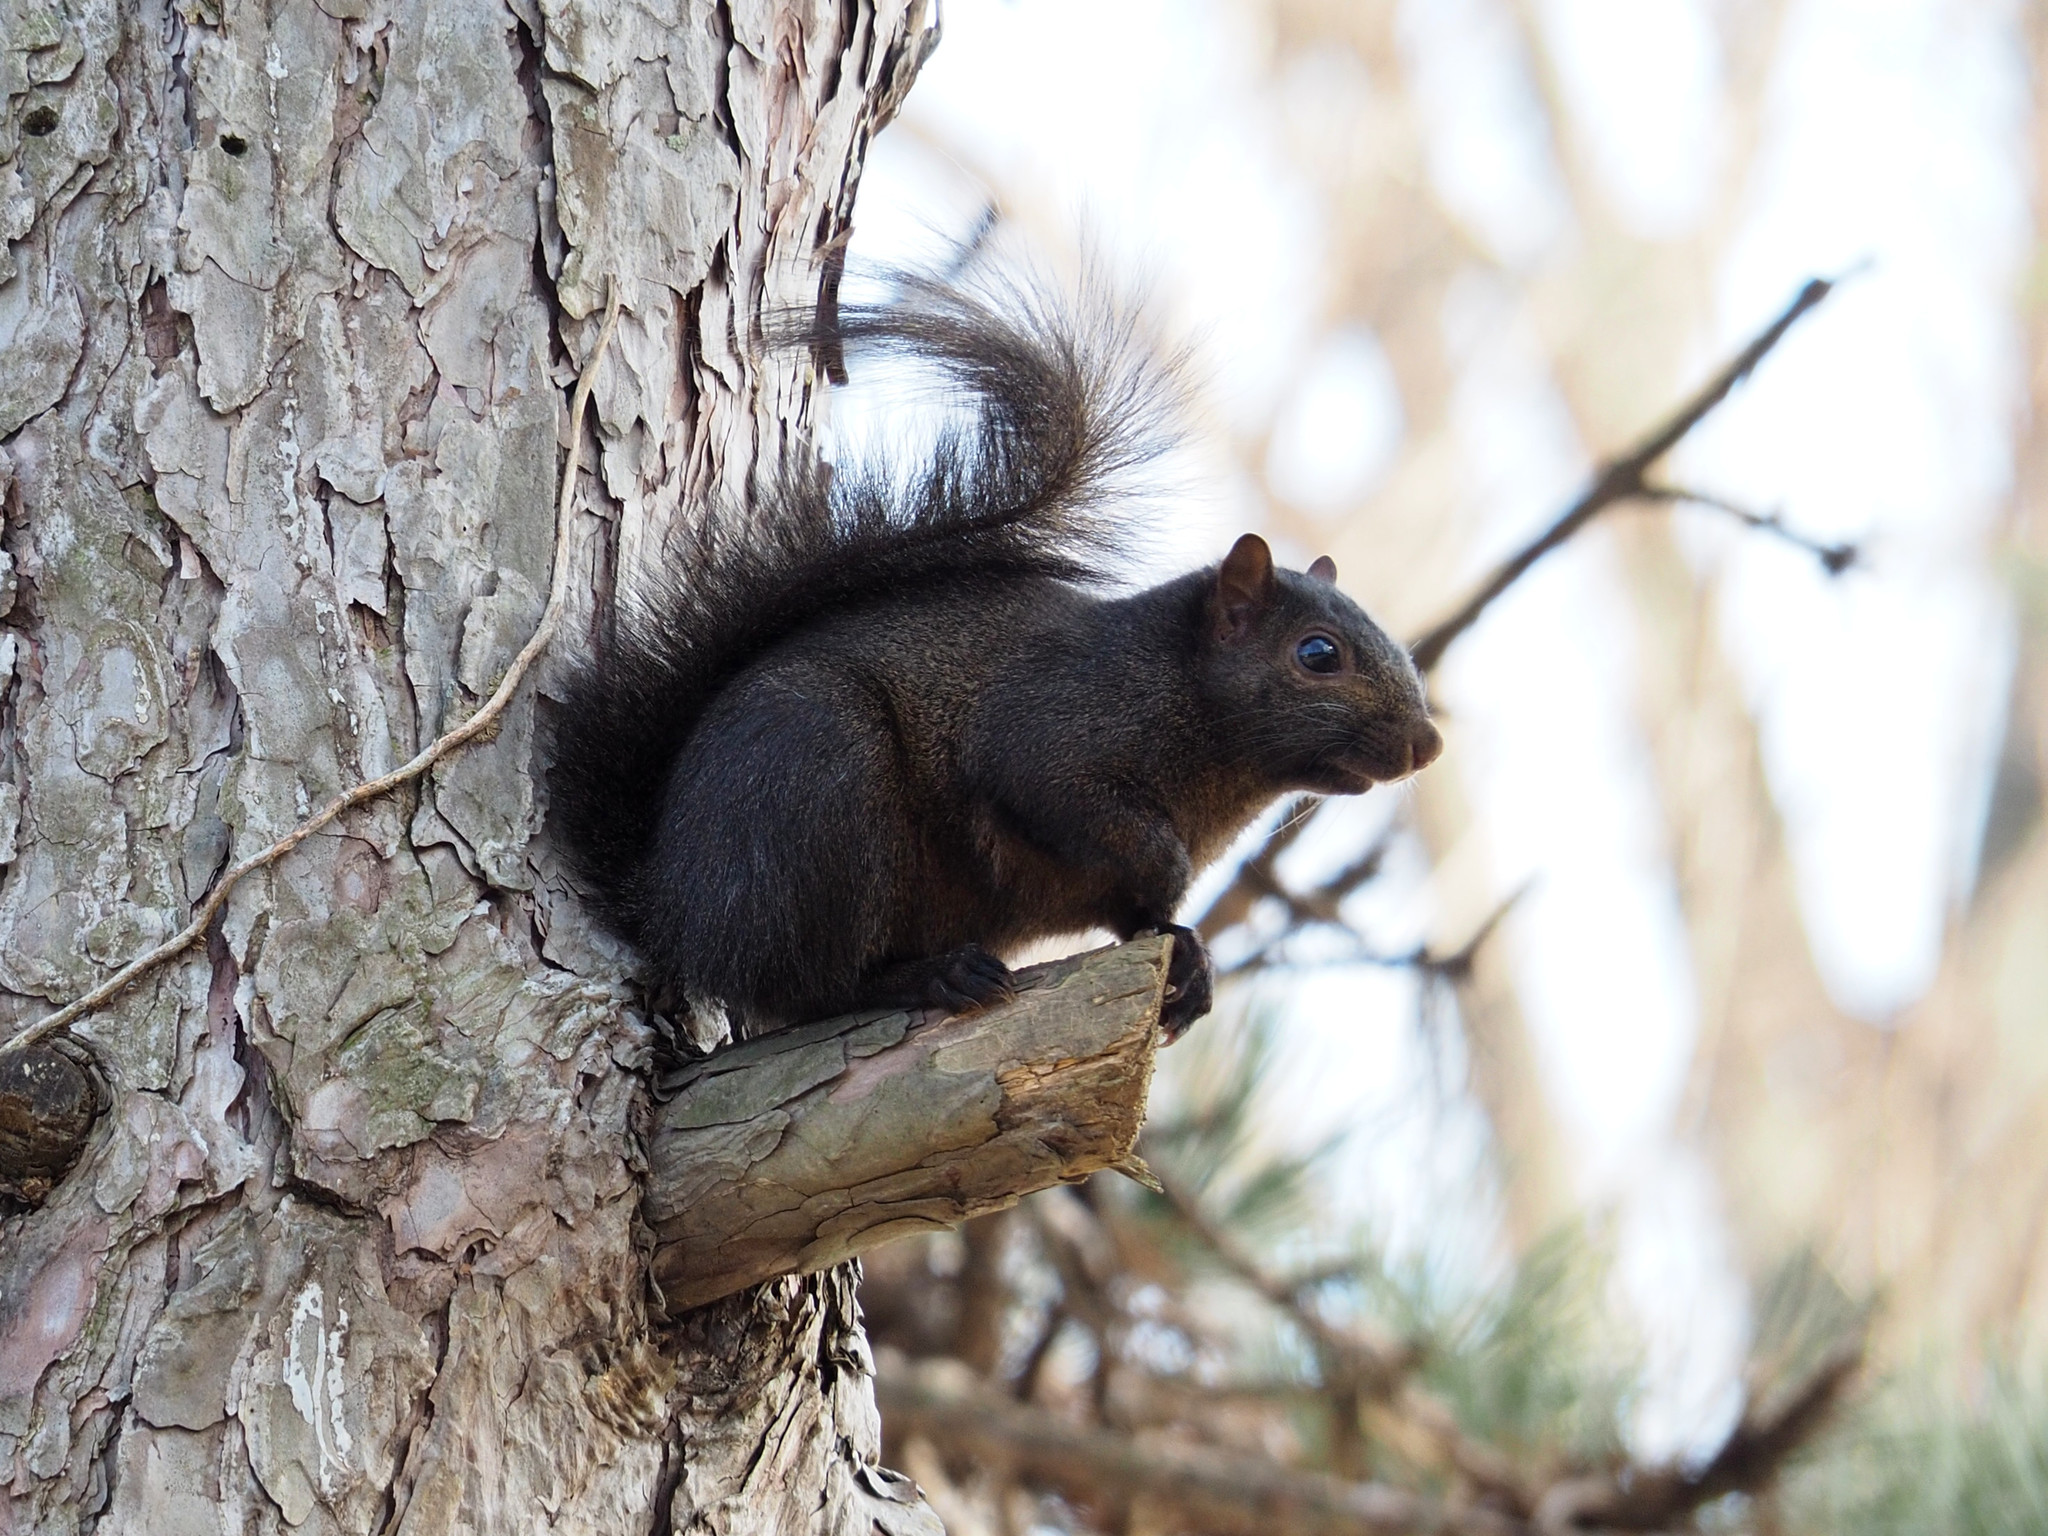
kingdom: Animalia
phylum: Chordata
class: Mammalia
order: Rodentia
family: Sciuridae
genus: Sciurus
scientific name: Sciurus carolinensis
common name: Eastern gray squirrel
